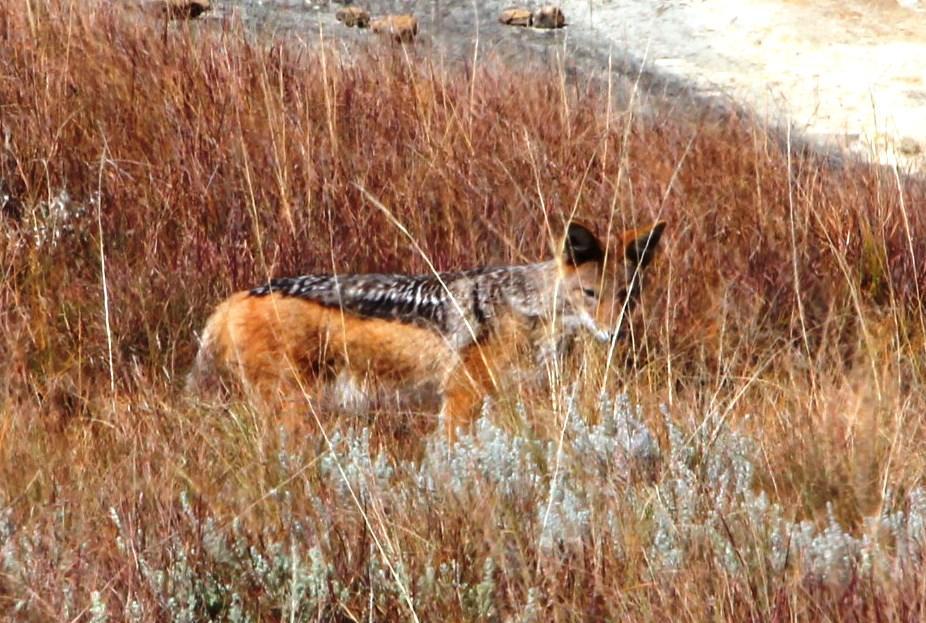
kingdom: Animalia
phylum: Chordata
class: Mammalia
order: Carnivora
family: Canidae
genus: Lupulella
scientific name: Lupulella
